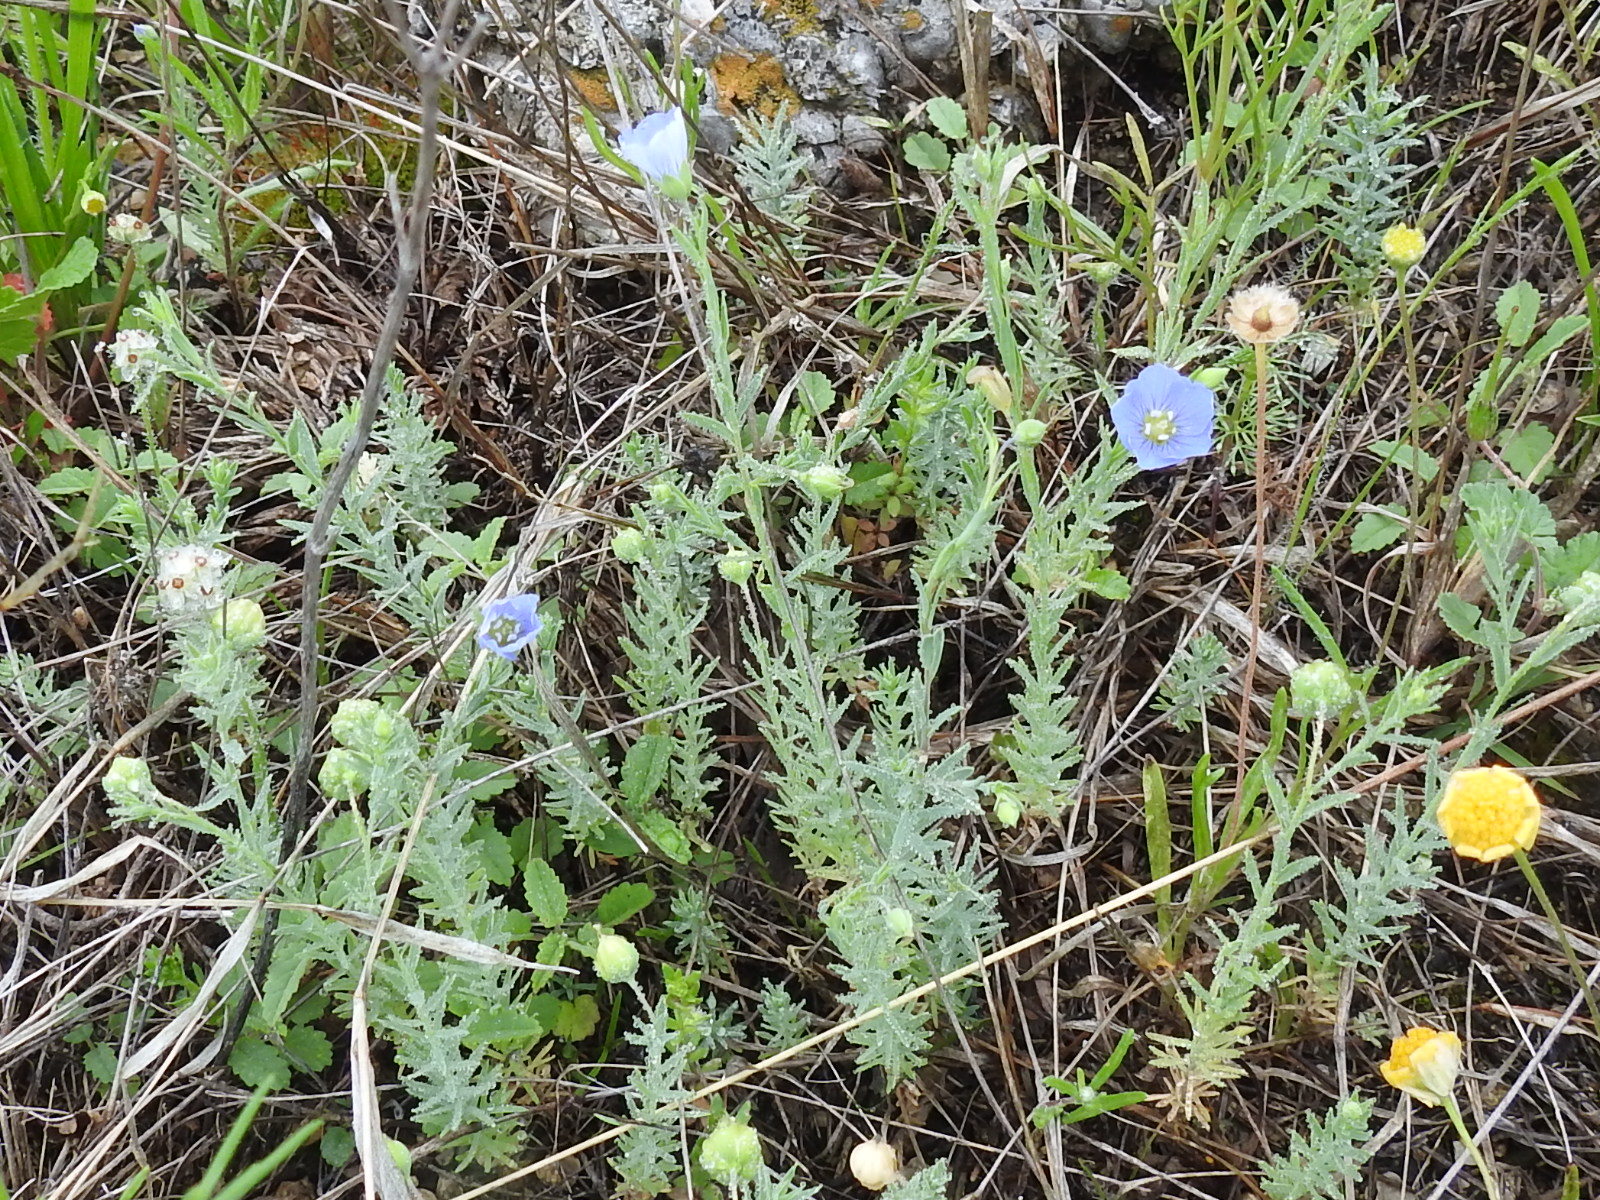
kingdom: Plantae
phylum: Tracheophyta
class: Magnoliopsida
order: Malpighiales
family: Linaceae
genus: Linum
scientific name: Linum pratense
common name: Norton's flax
